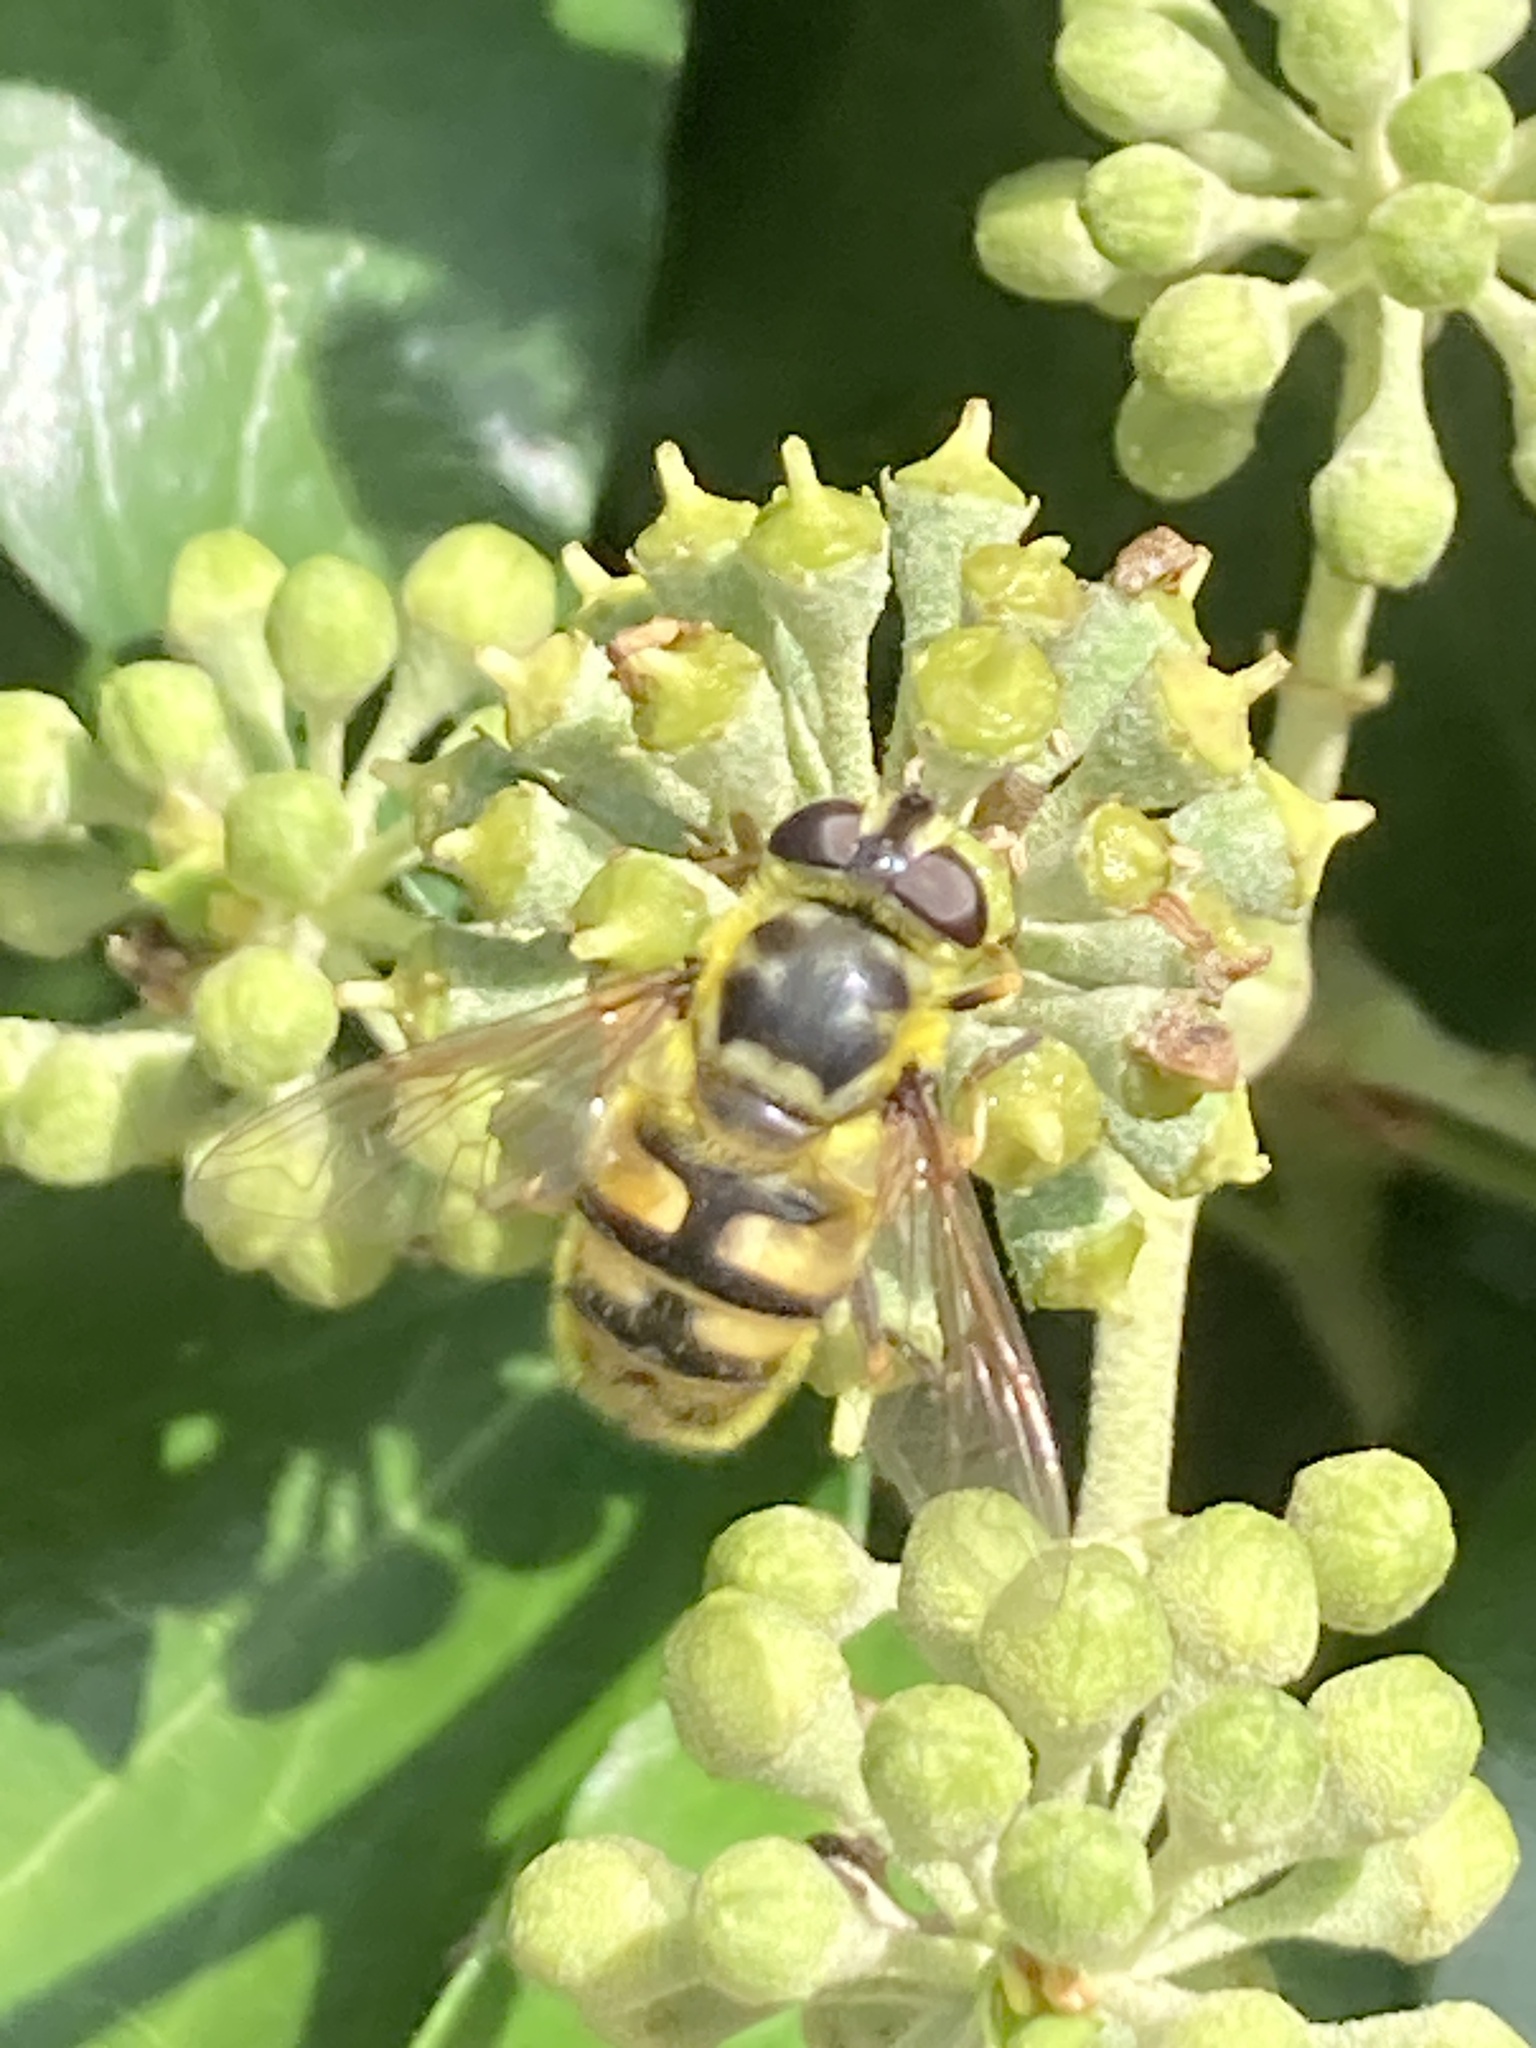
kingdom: Animalia
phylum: Arthropoda
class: Insecta
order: Diptera
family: Syrphidae
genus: Myathropa
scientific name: Myathropa florea
